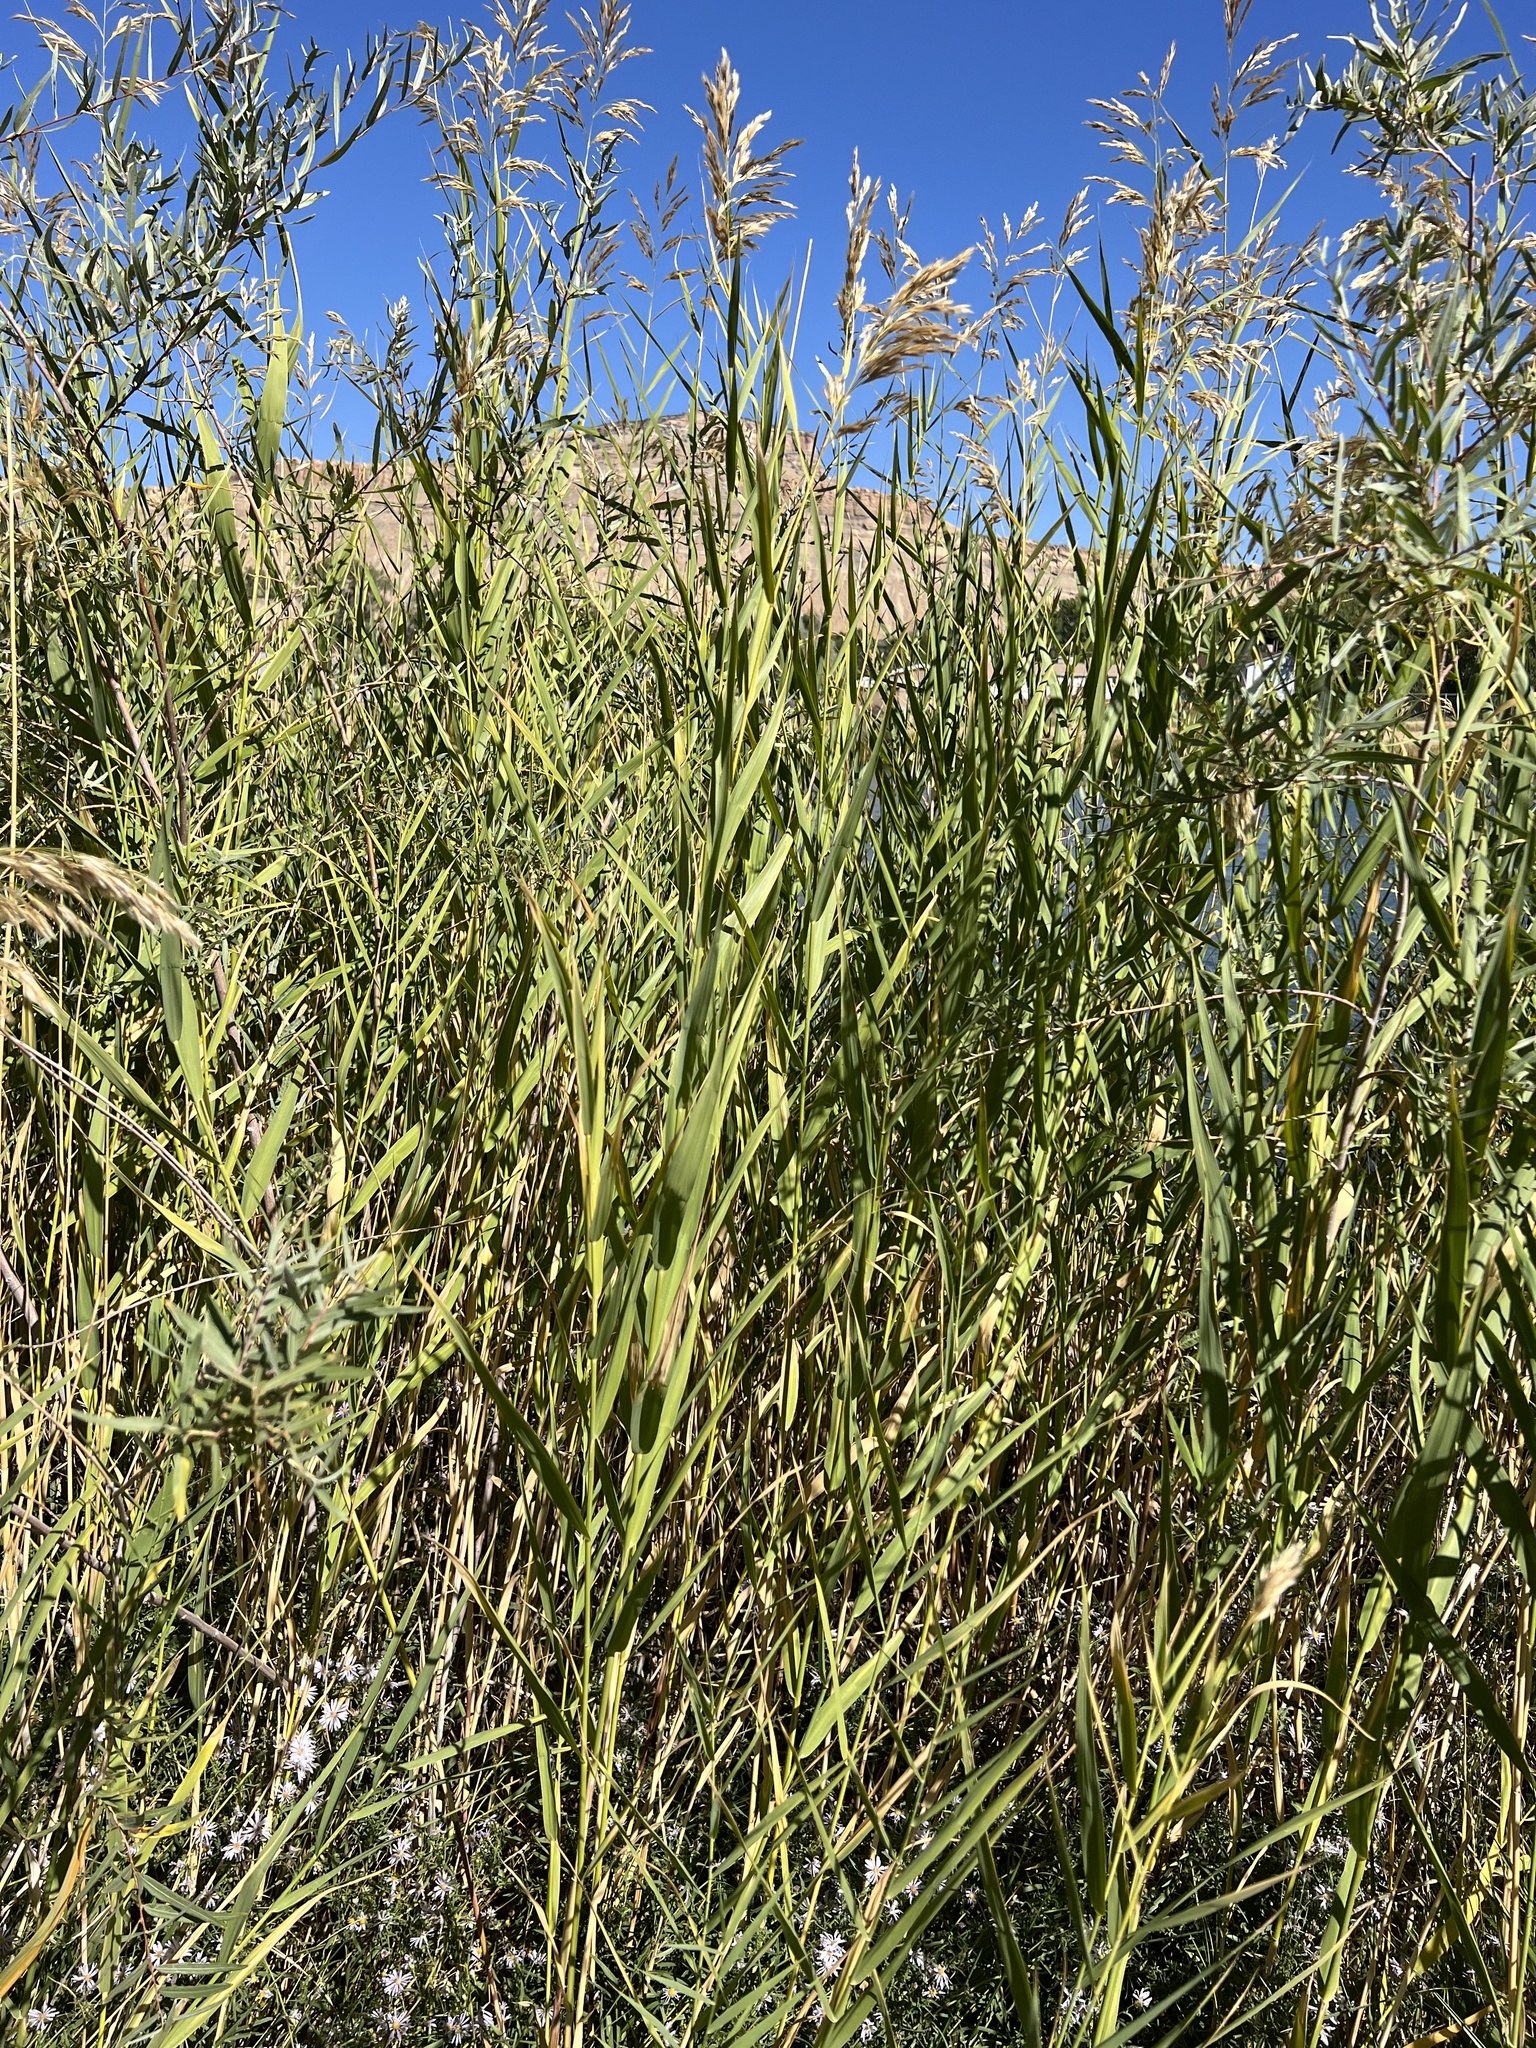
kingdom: Plantae
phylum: Tracheophyta
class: Liliopsida
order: Poales
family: Poaceae
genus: Phragmites
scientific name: Phragmites australis
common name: Common reed
